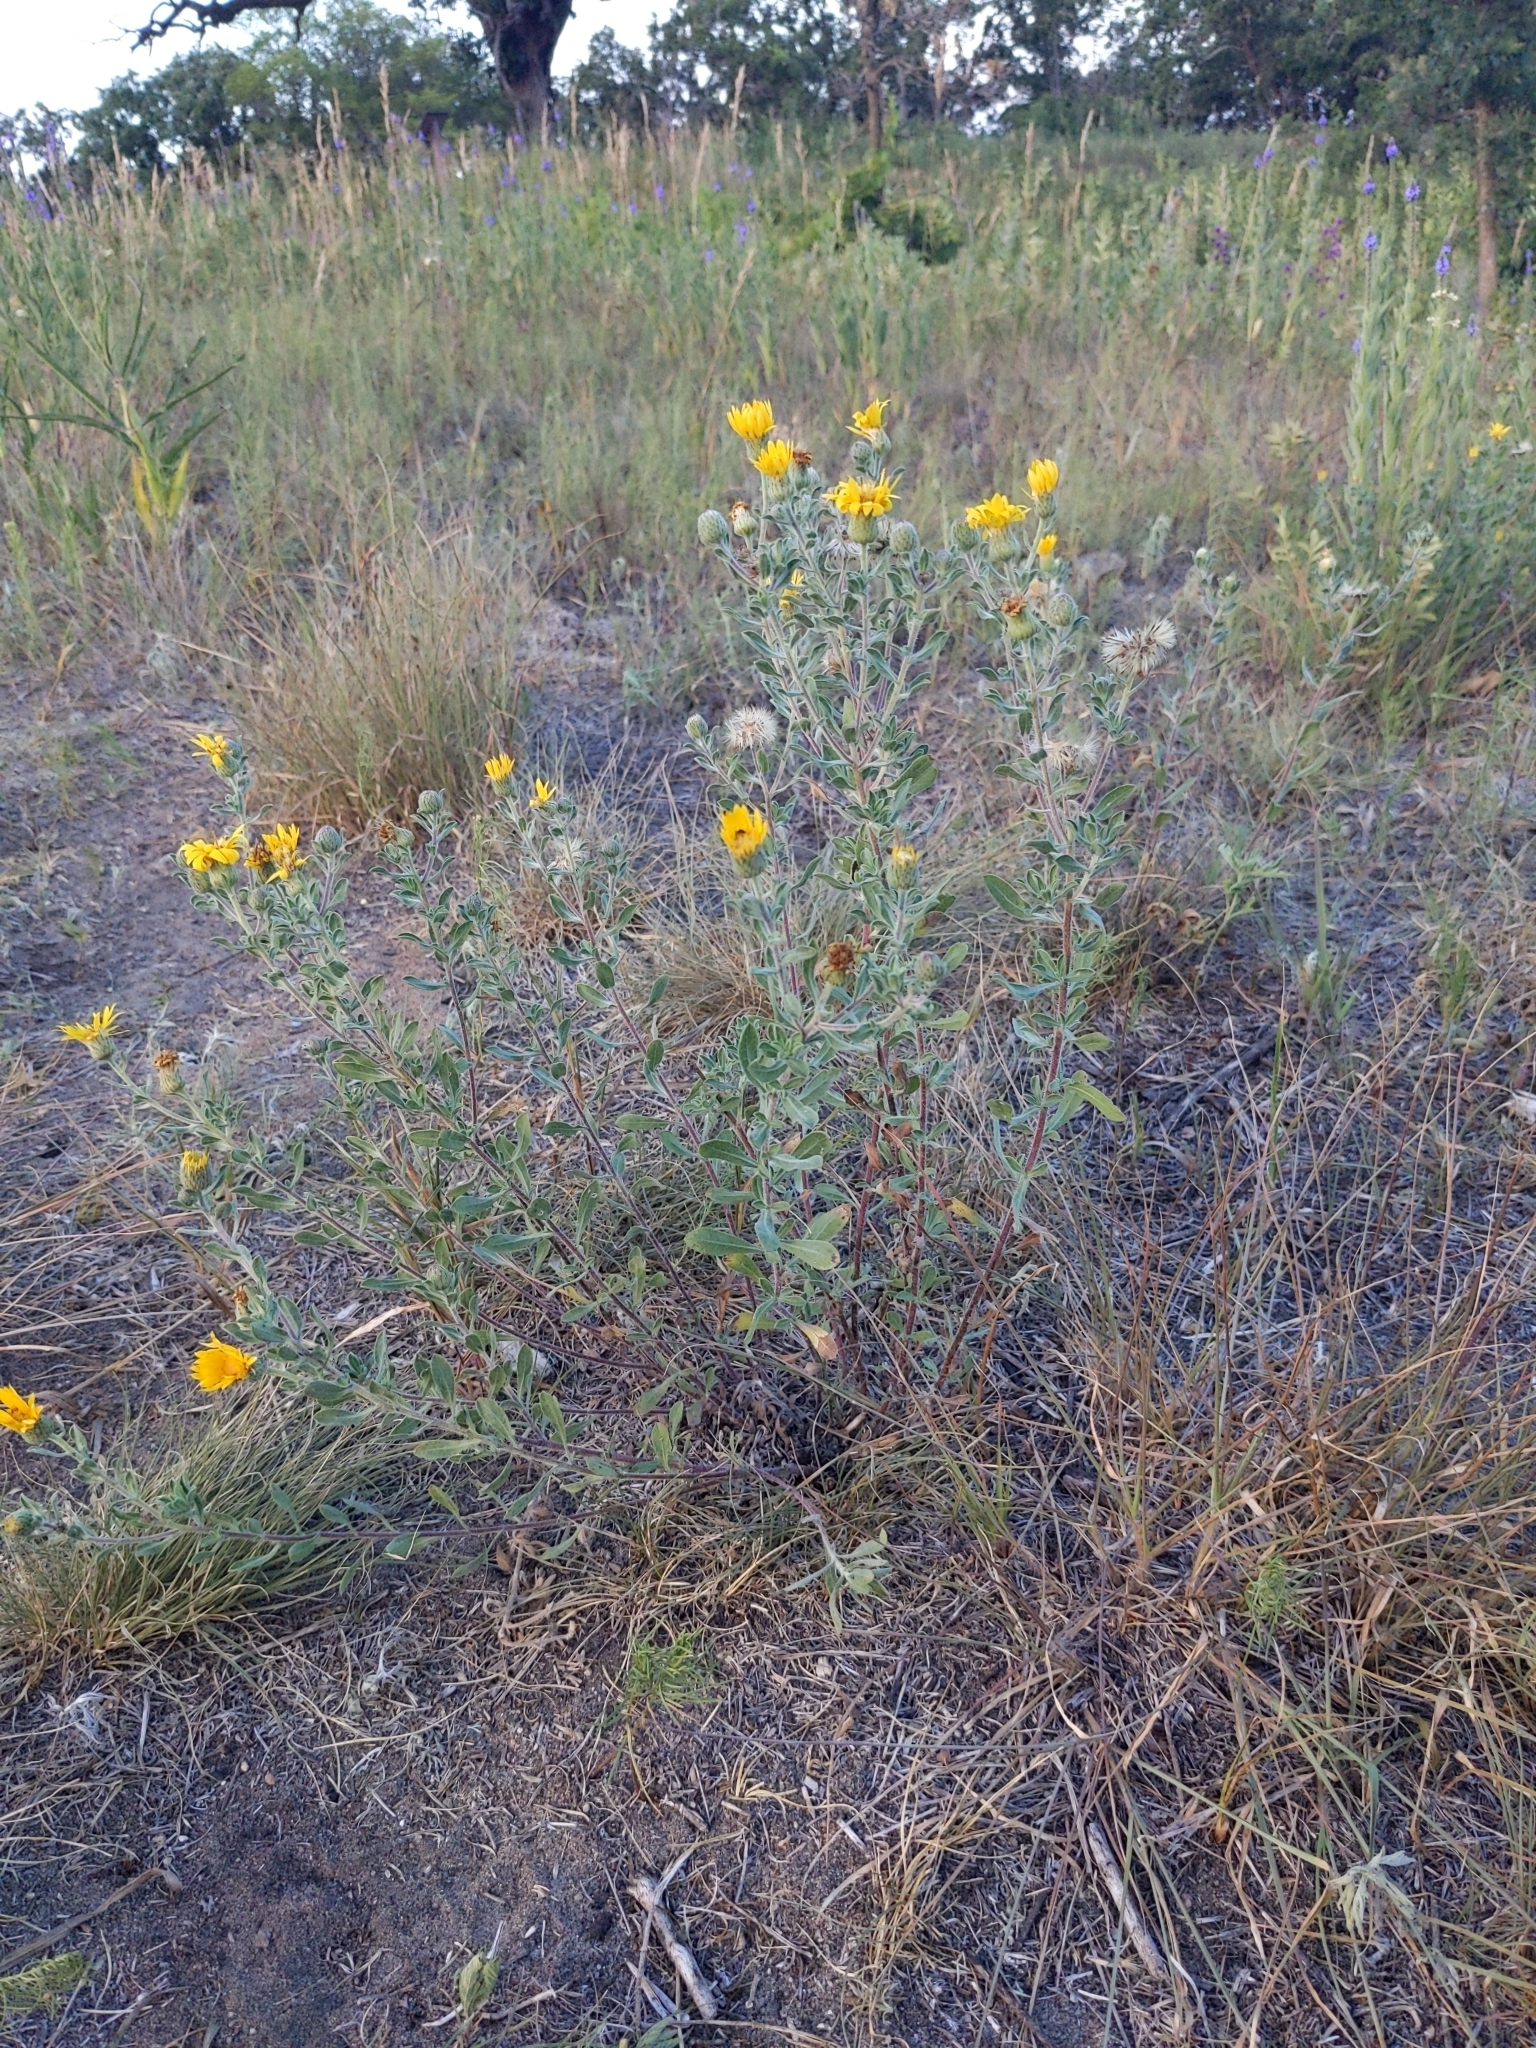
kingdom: Plantae
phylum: Tracheophyta
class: Magnoliopsida
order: Asterales
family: Asteraceae
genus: Heterotheca
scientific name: Heterotheca villosa
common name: Hairy false goldenaster
